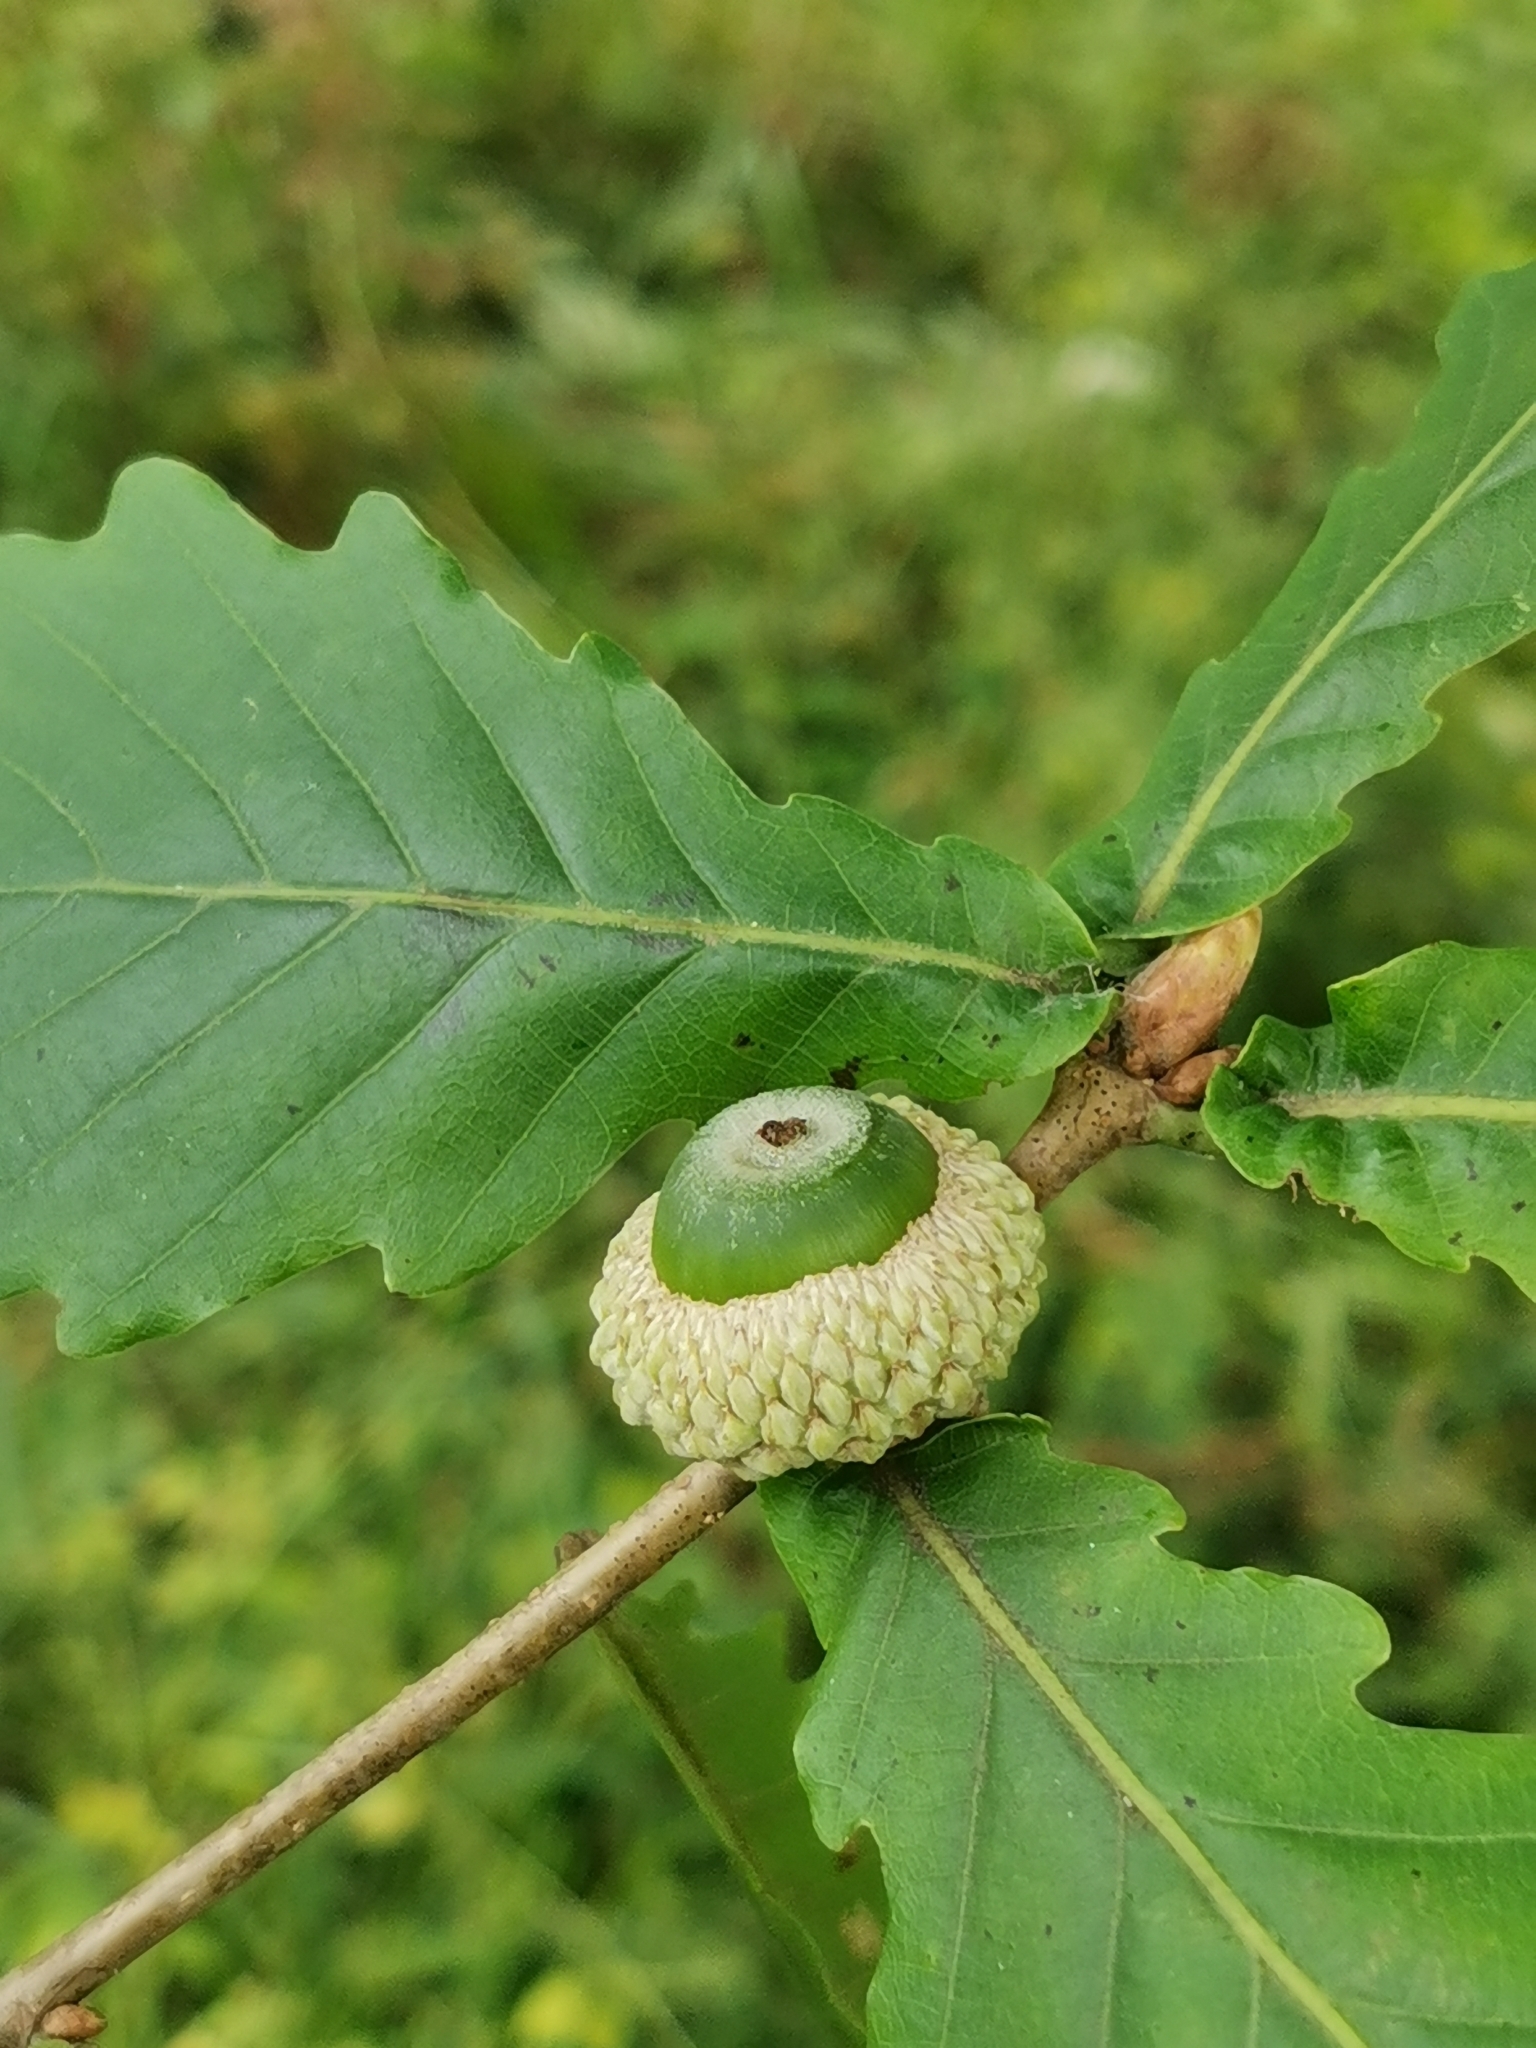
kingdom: Plantae
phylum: Tracheophyta
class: Magnoliopsida
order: Fagales
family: Fagaceae
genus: Quercus
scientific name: Quercus mongolica
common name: Mongolian oak
